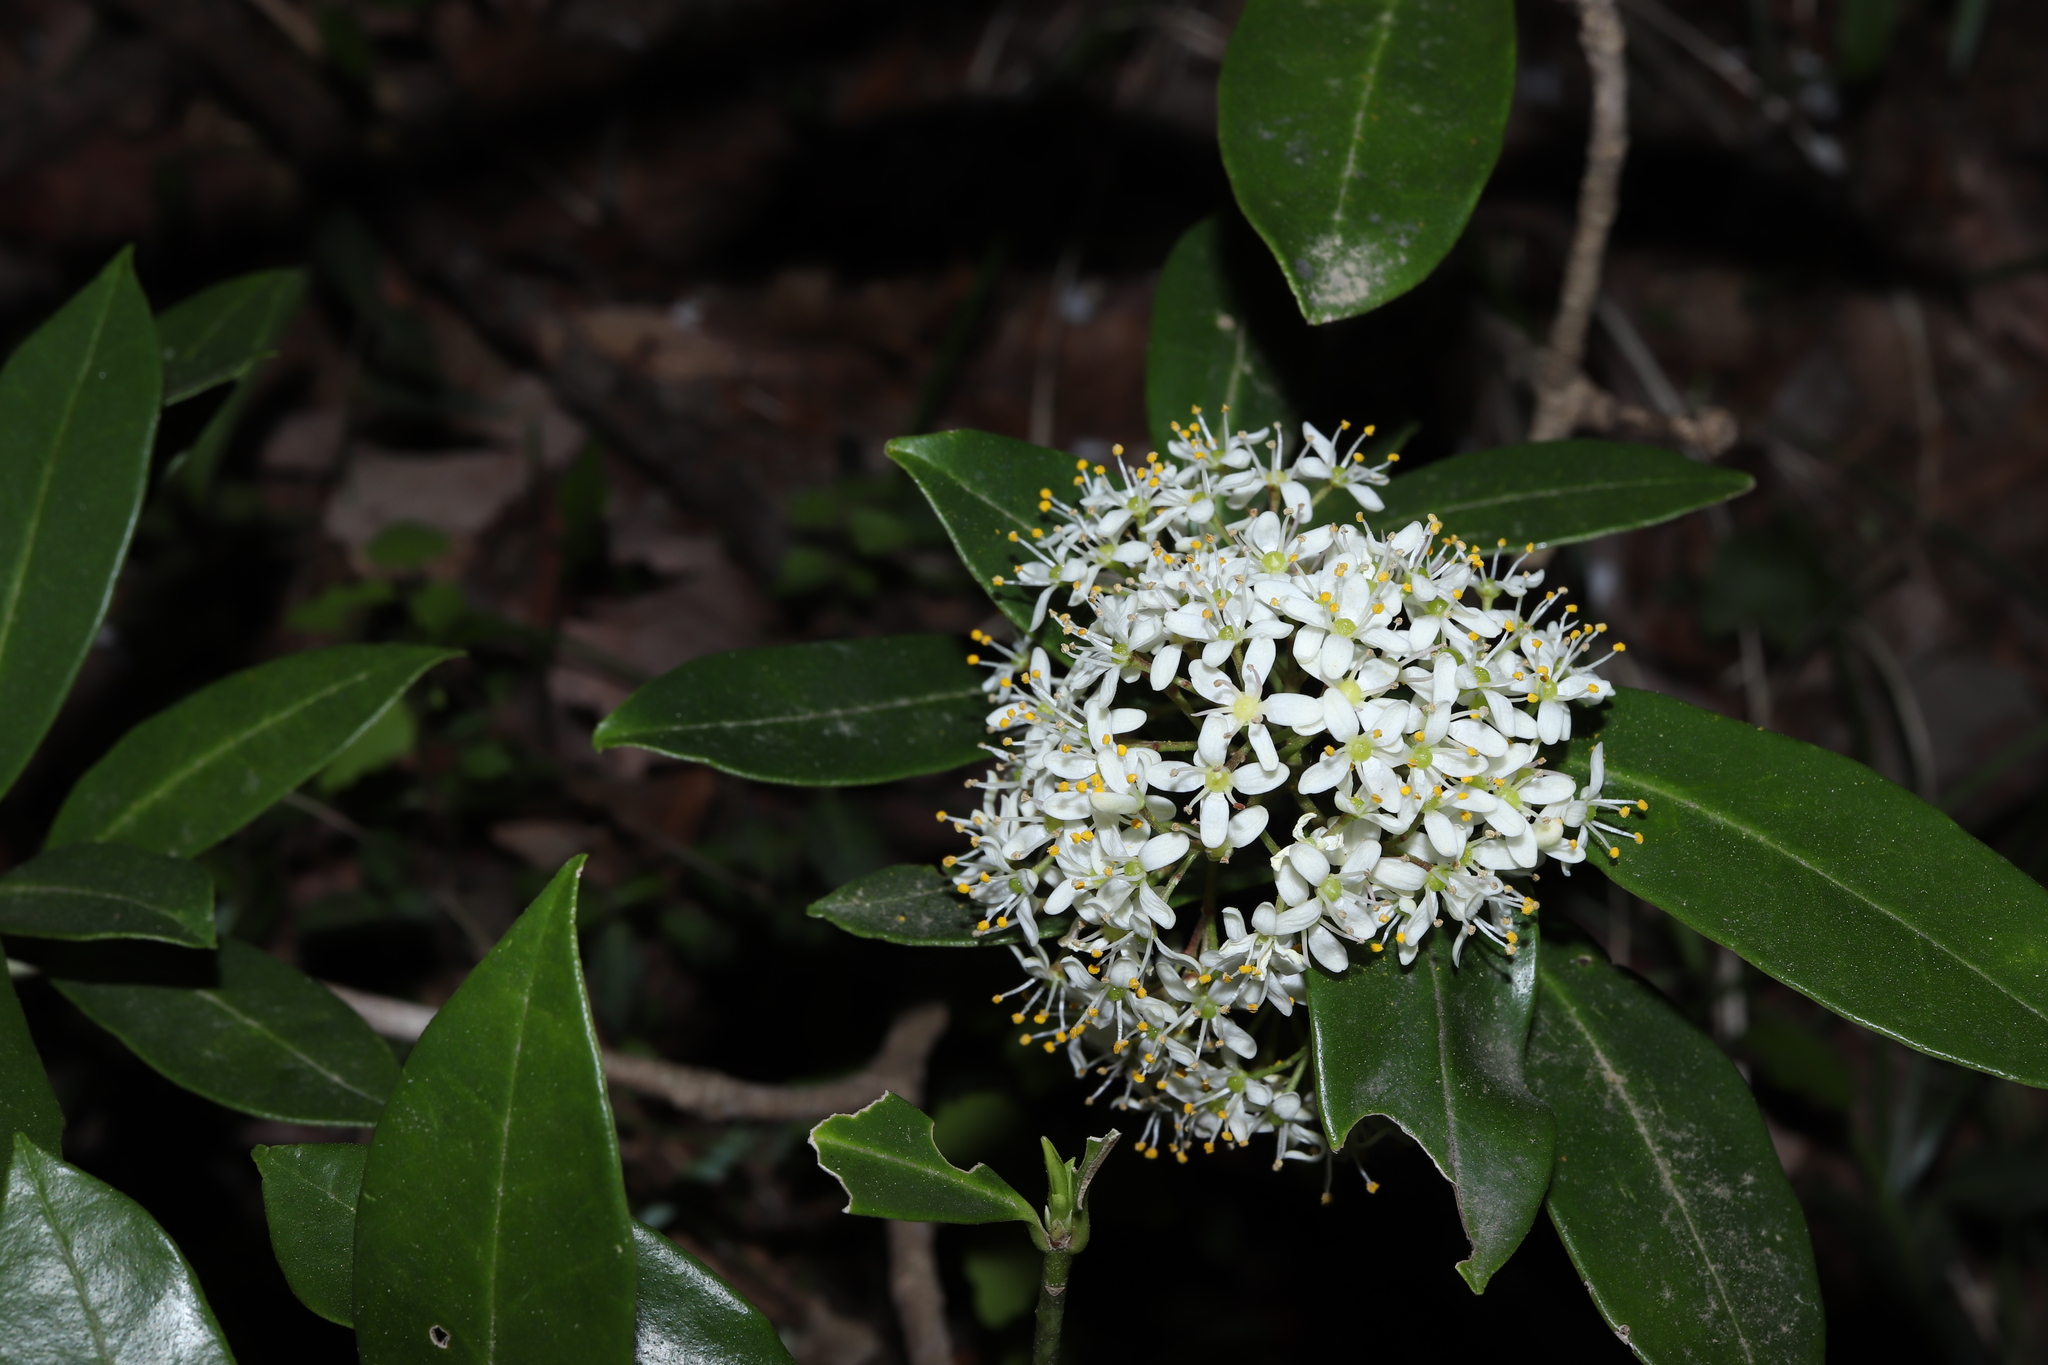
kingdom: Plantae
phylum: Tracheophyta
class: Magnoliopsida
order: Sapindales
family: Rutaceae
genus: Skimmia
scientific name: Skimmia japonica
